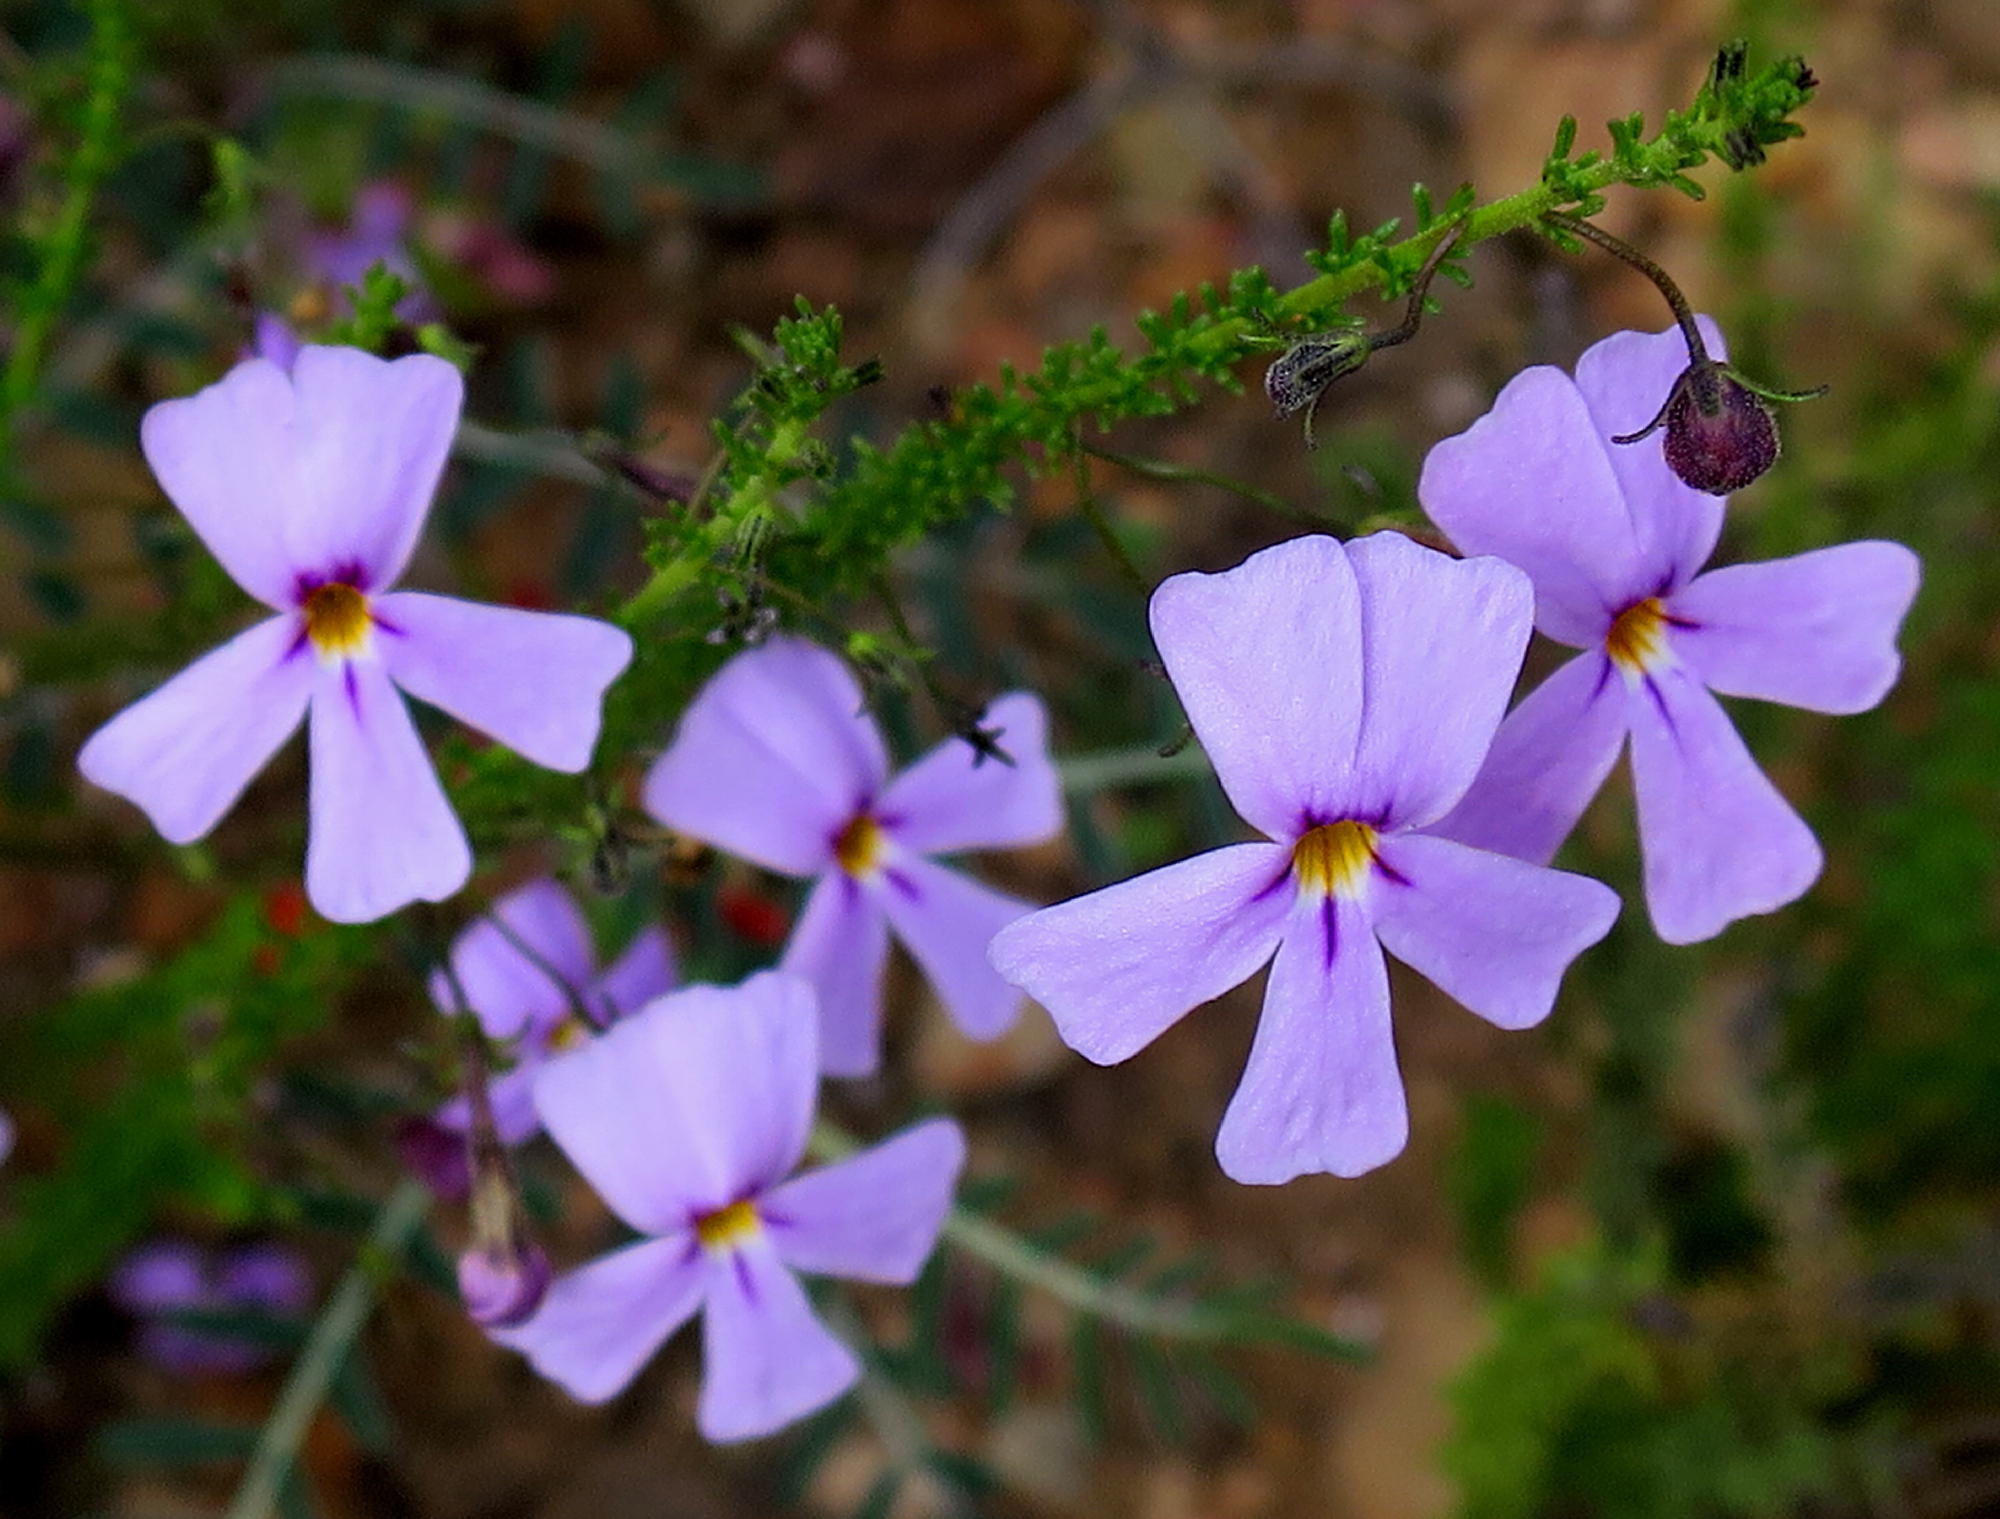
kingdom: Plantae
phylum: Tracheophyta
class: Magnoliopsida
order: Lamiales
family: Scrophulariaceae
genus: Jamesbrittenia
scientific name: Jamesbrittenia tortuosa
